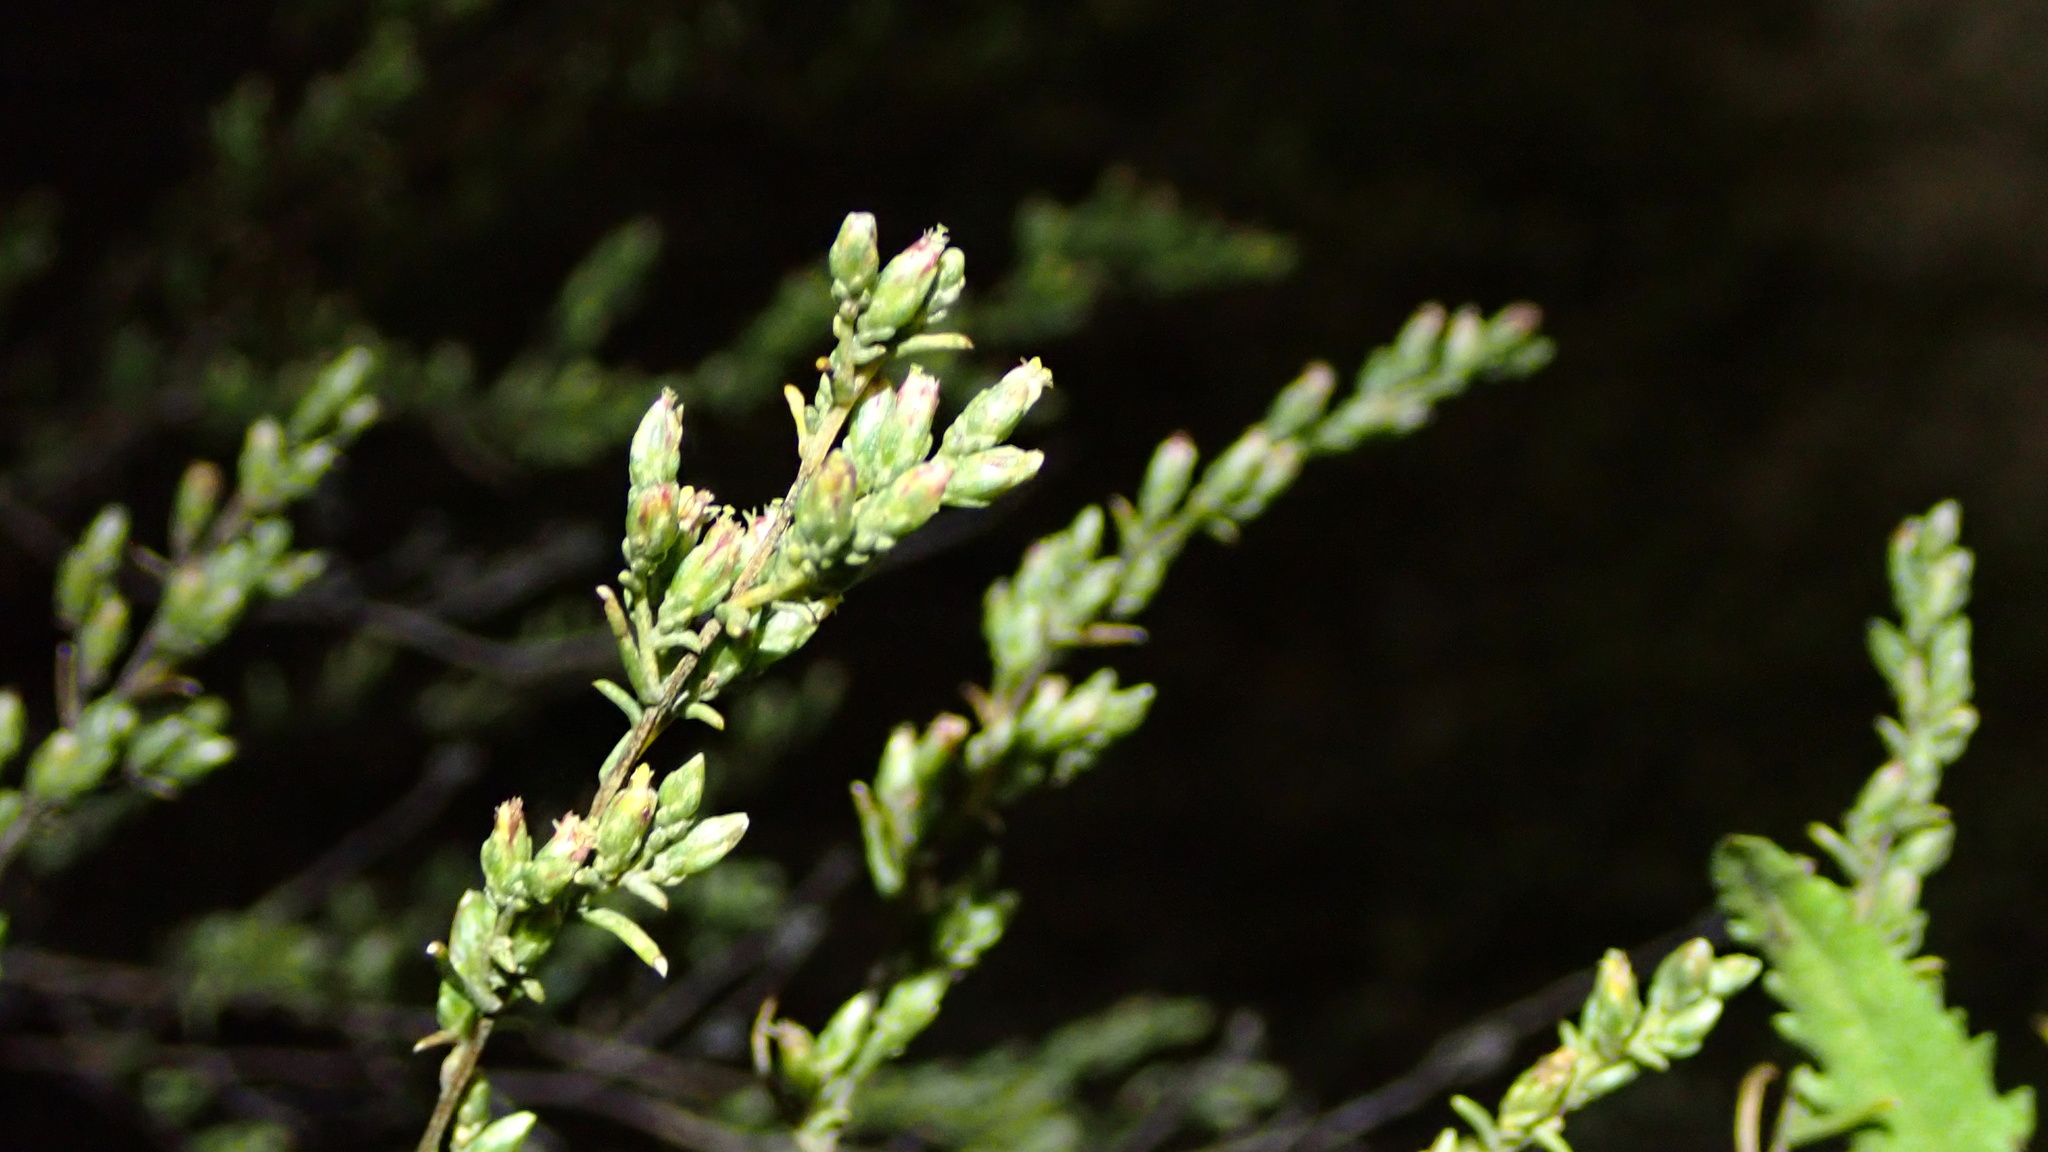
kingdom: Plantae
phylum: Tracheophyta
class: Magnoliopsida
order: Asterales
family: Asteraceae
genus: Artemisia
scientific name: Artemisia campestris
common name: Field wormwood
